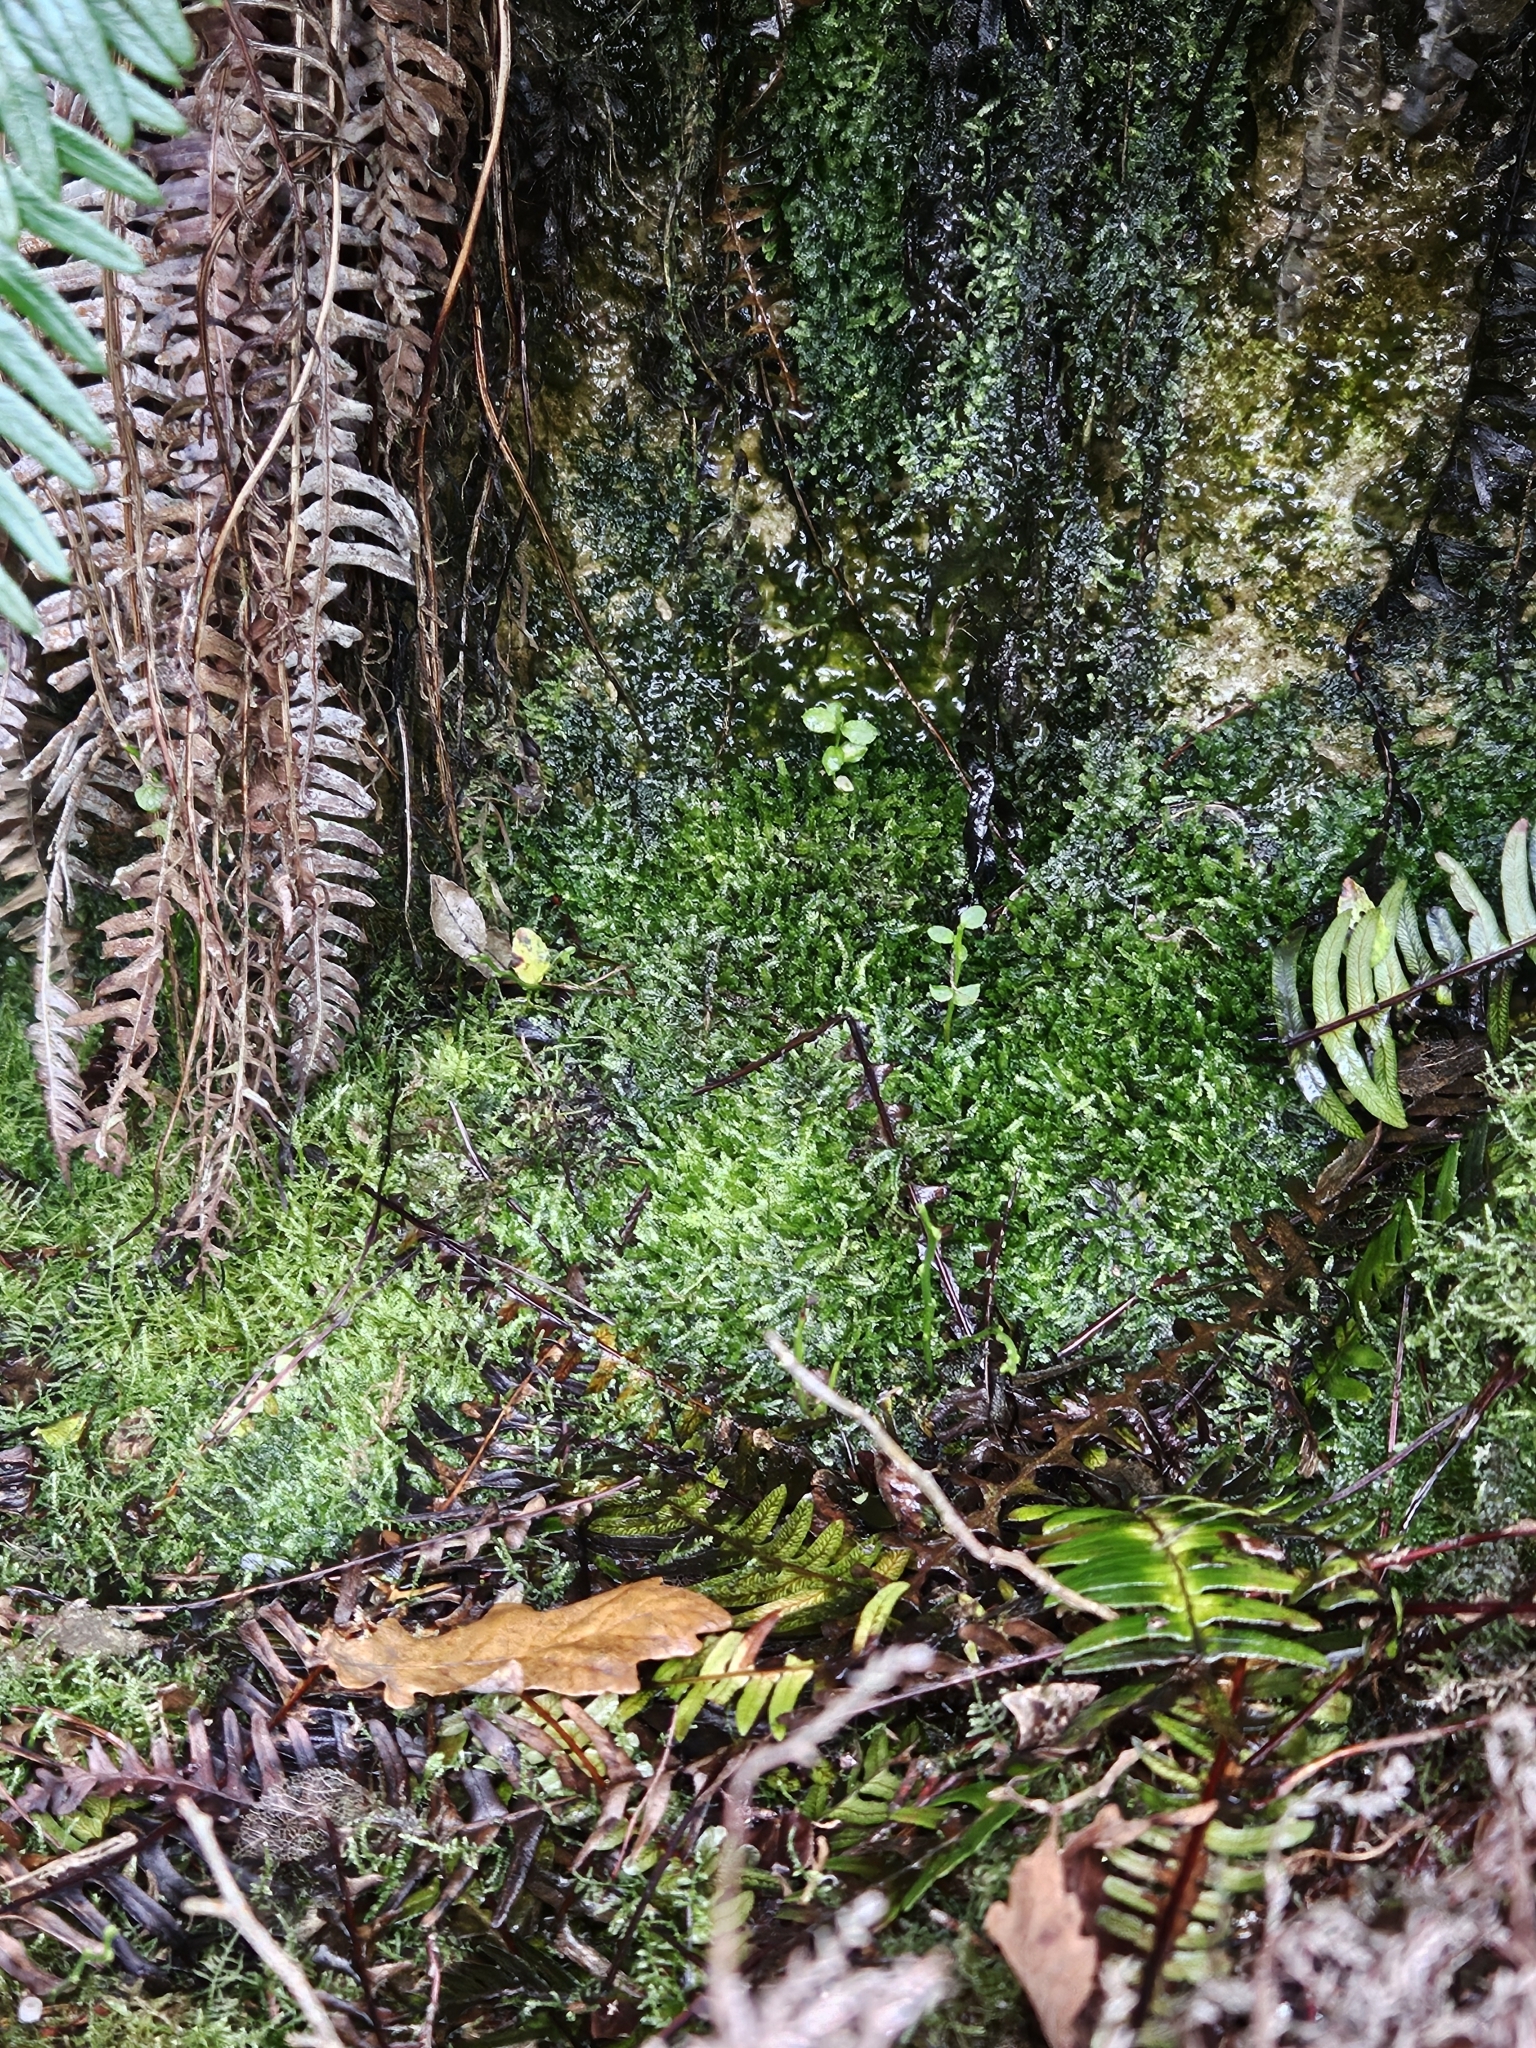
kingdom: Plantae
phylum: Bryophyta
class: Bryopsida
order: Hypnales
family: Plagiotheciaceae
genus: Pseudotaxiphyllum
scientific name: Pseudotaxiphyllum elegans
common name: Elegant silk moss
